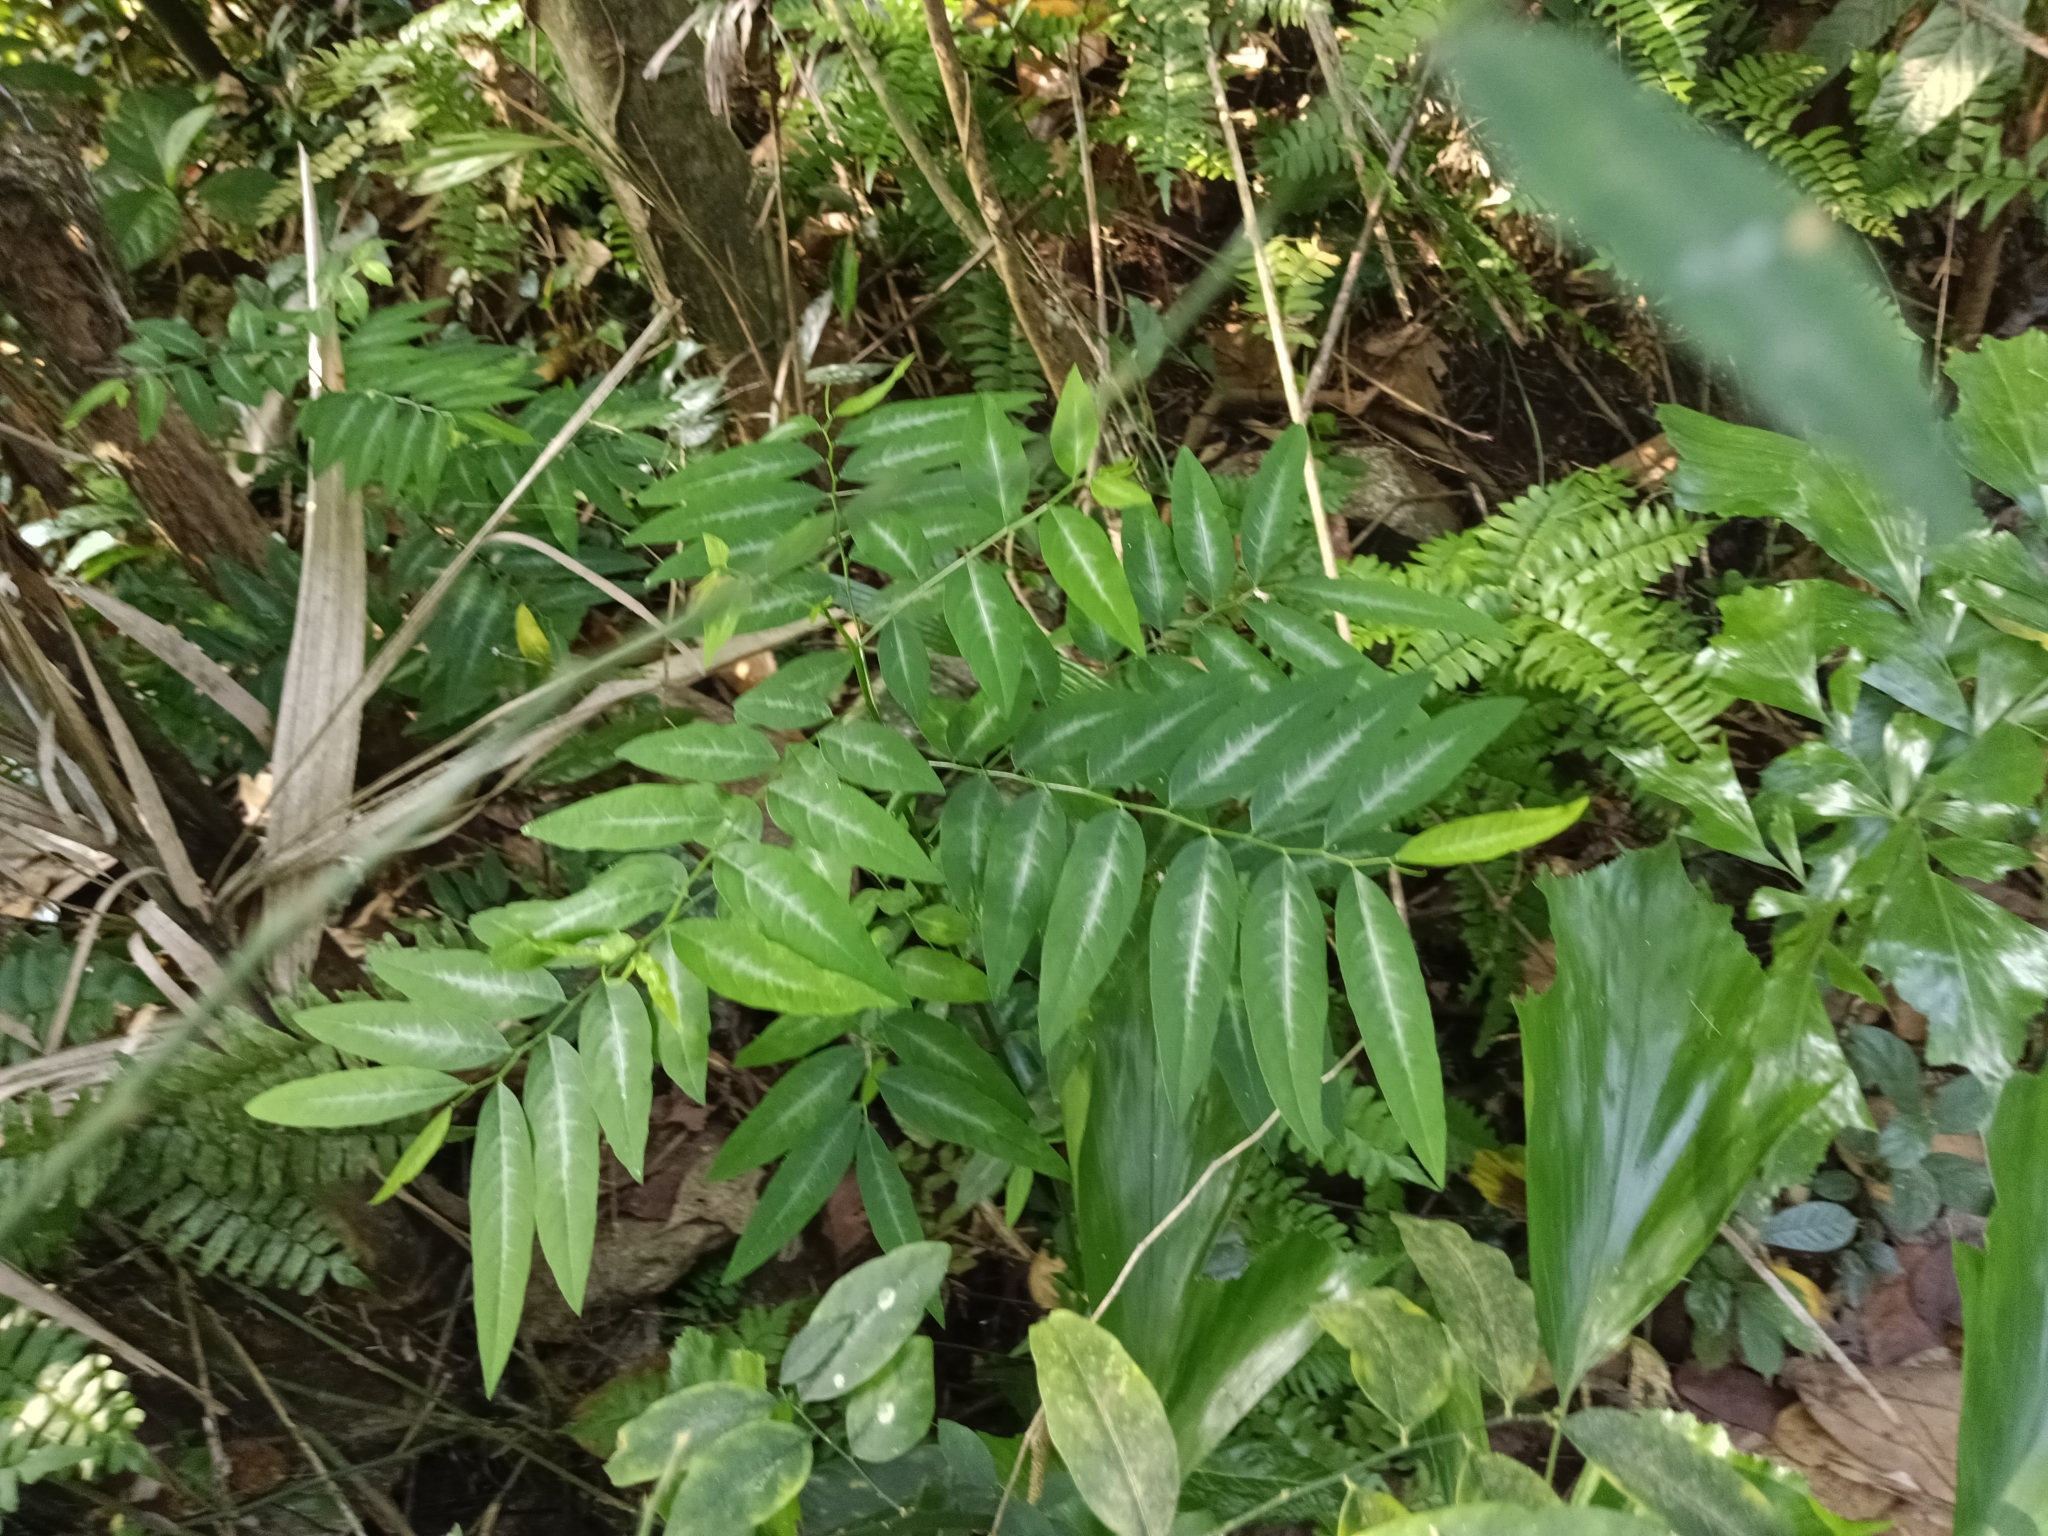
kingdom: Plantae
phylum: Tracheophyta
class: Magnoliopsida
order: Malpighiales
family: Phyllanthaceae
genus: Breynia
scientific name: Breynia androgyna
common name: Star gooseberry
